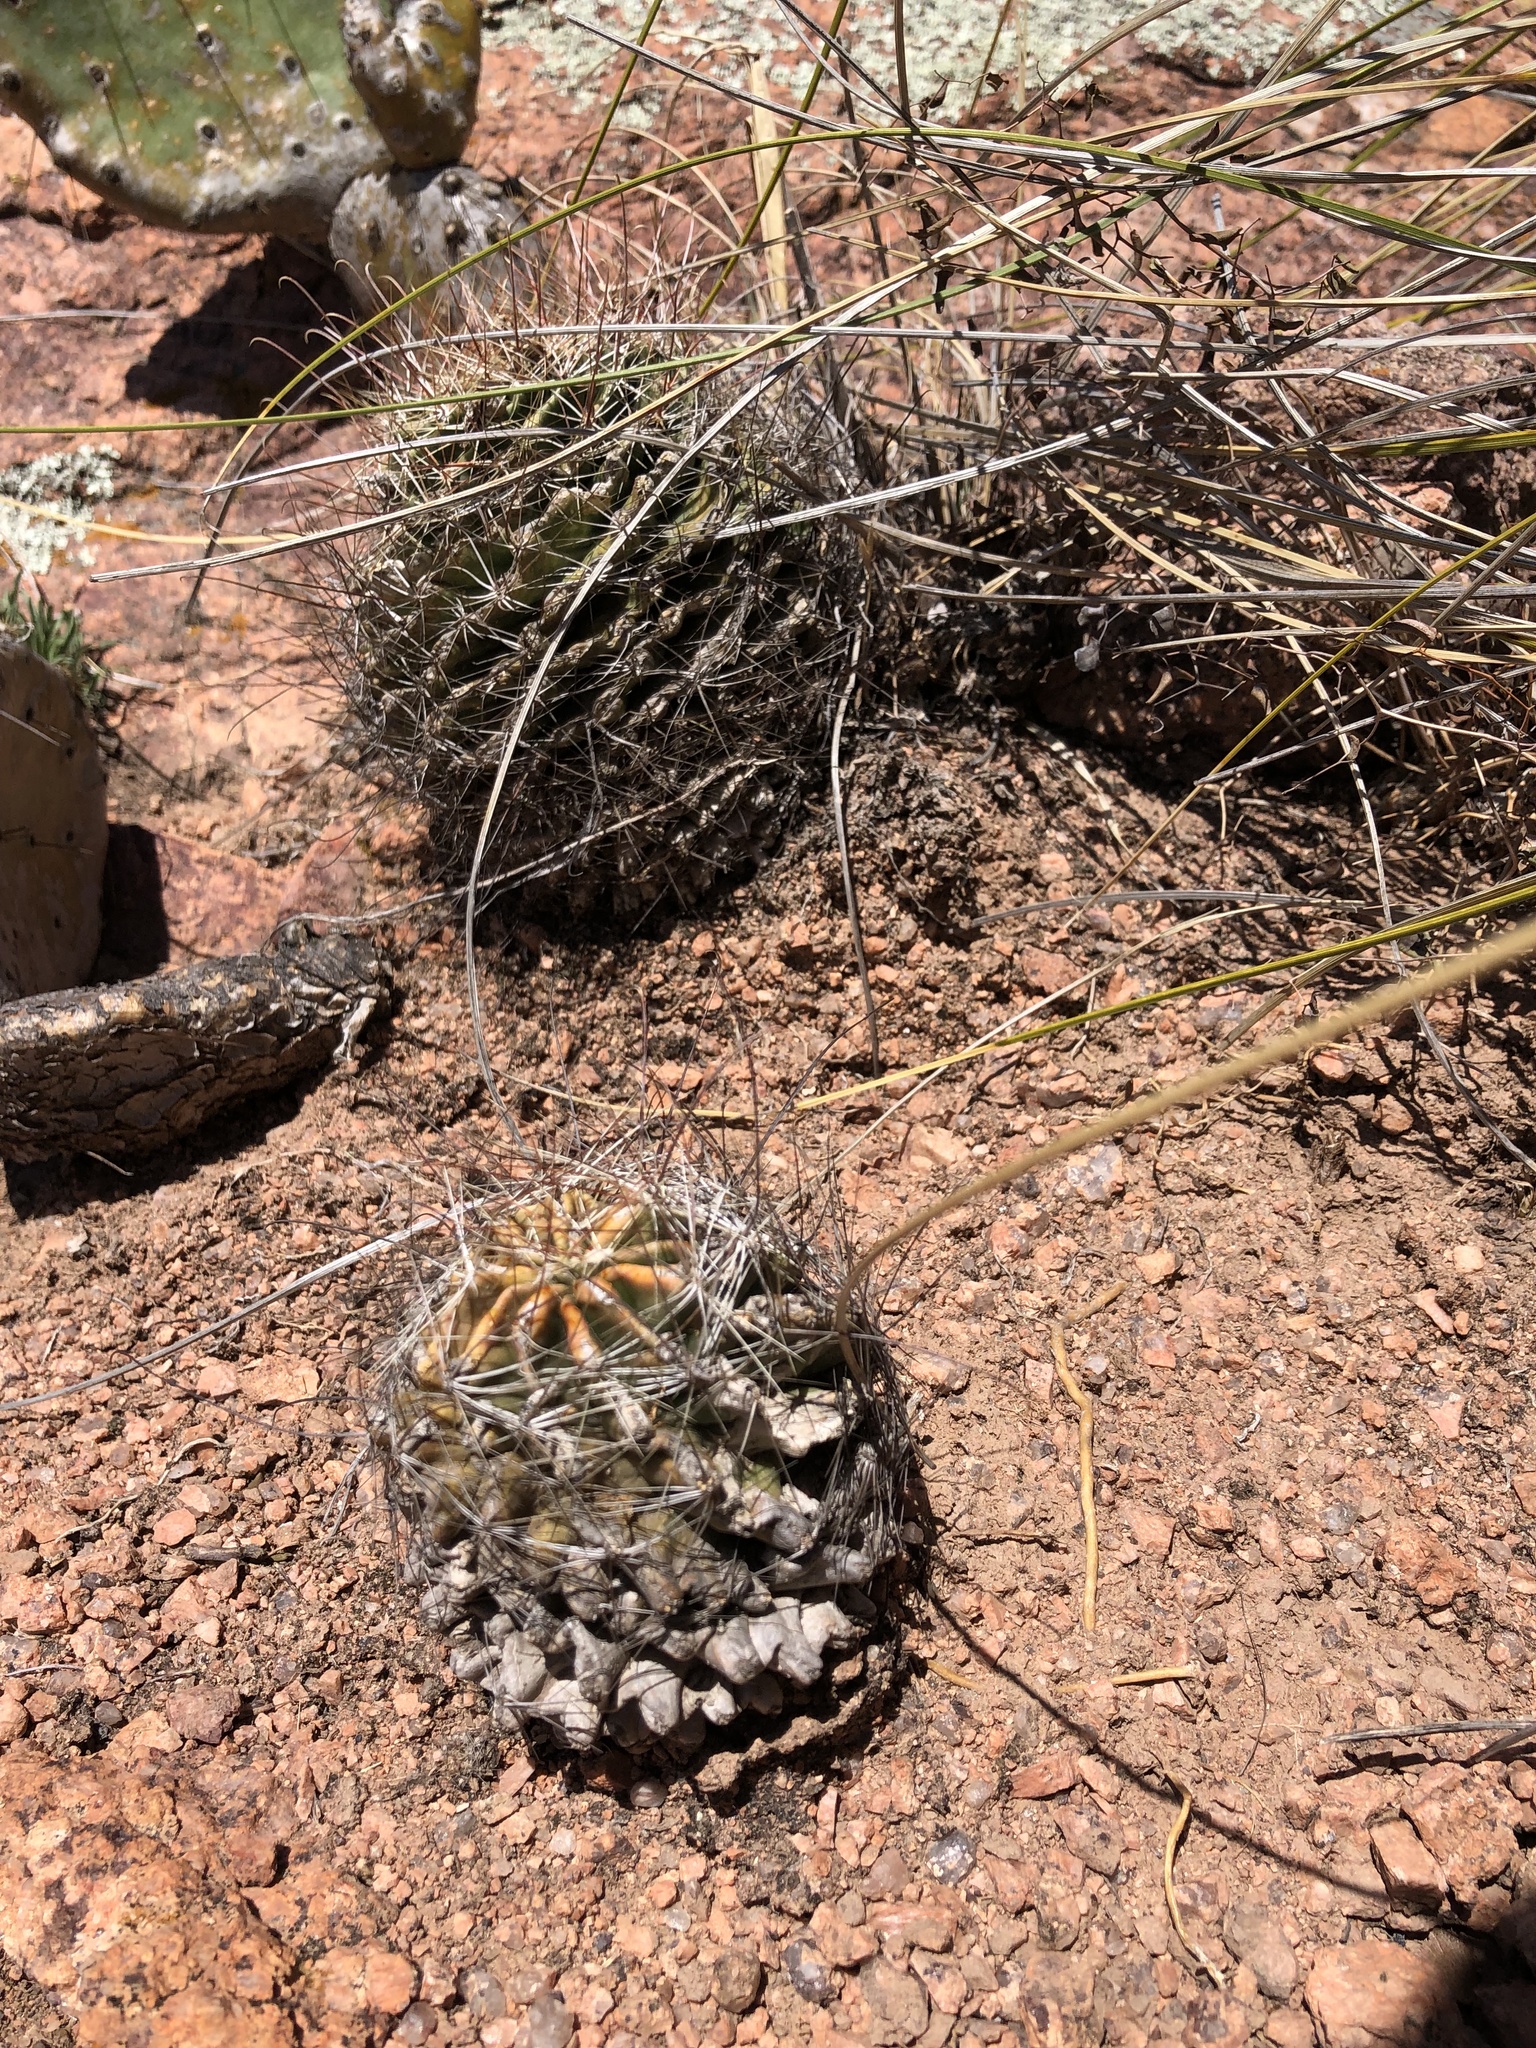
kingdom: Plantae
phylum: Tracheophyta
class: Magnoliopsida
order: Caryophyllales
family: Cactaceae
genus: Thelocactus
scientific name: Thelocactus setispinus
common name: Miniature barrel cactus
